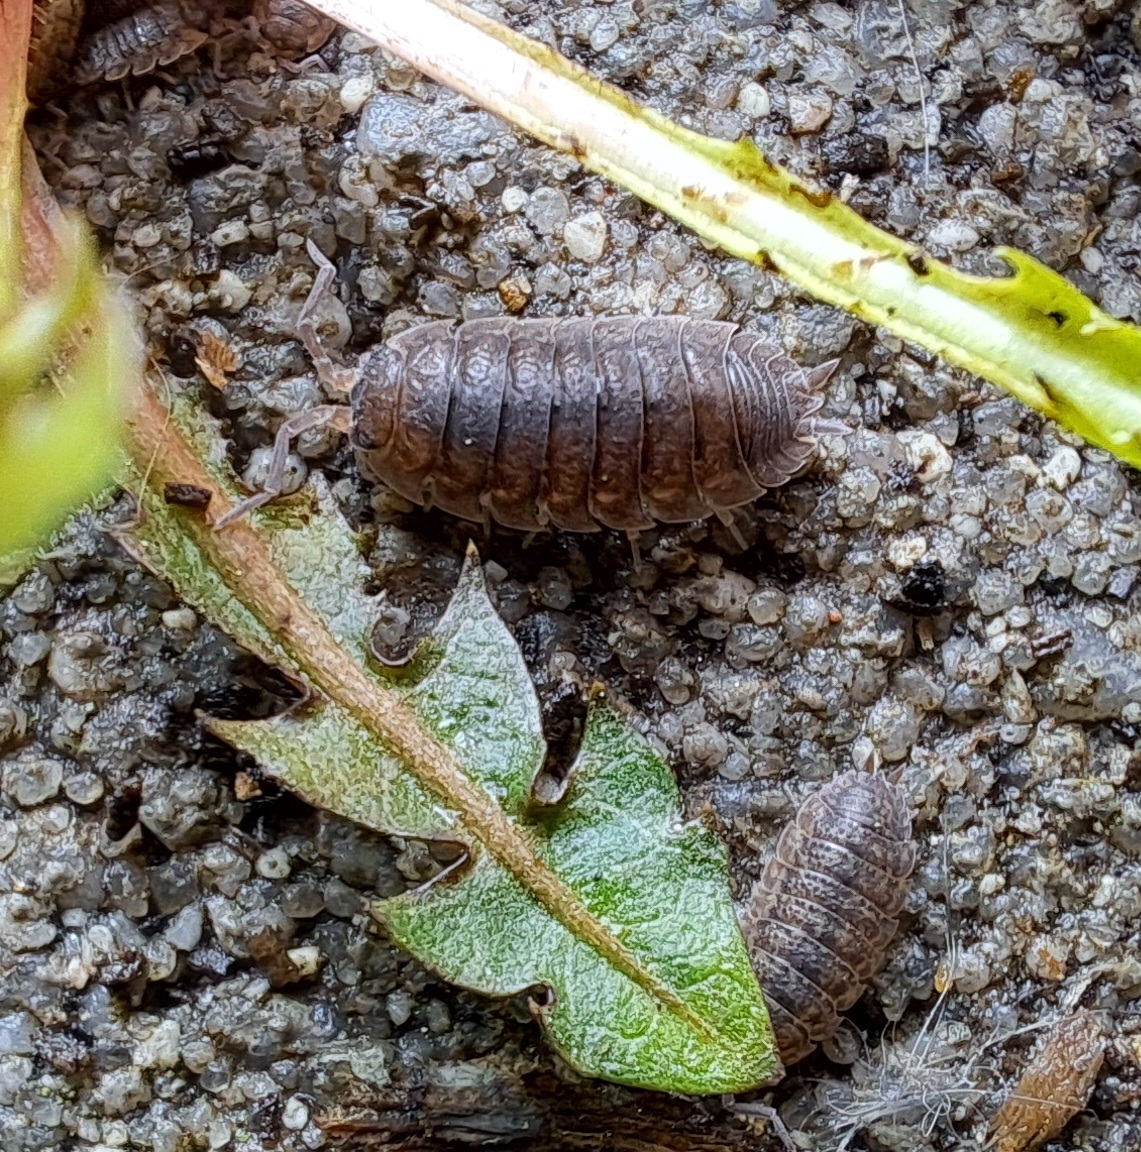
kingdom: Animalia
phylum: Arthropoda
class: Malacostraca
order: Isopoda
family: Porcellionidae
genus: Porcellio
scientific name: Porcellio scaber
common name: Common rough woodlouse
